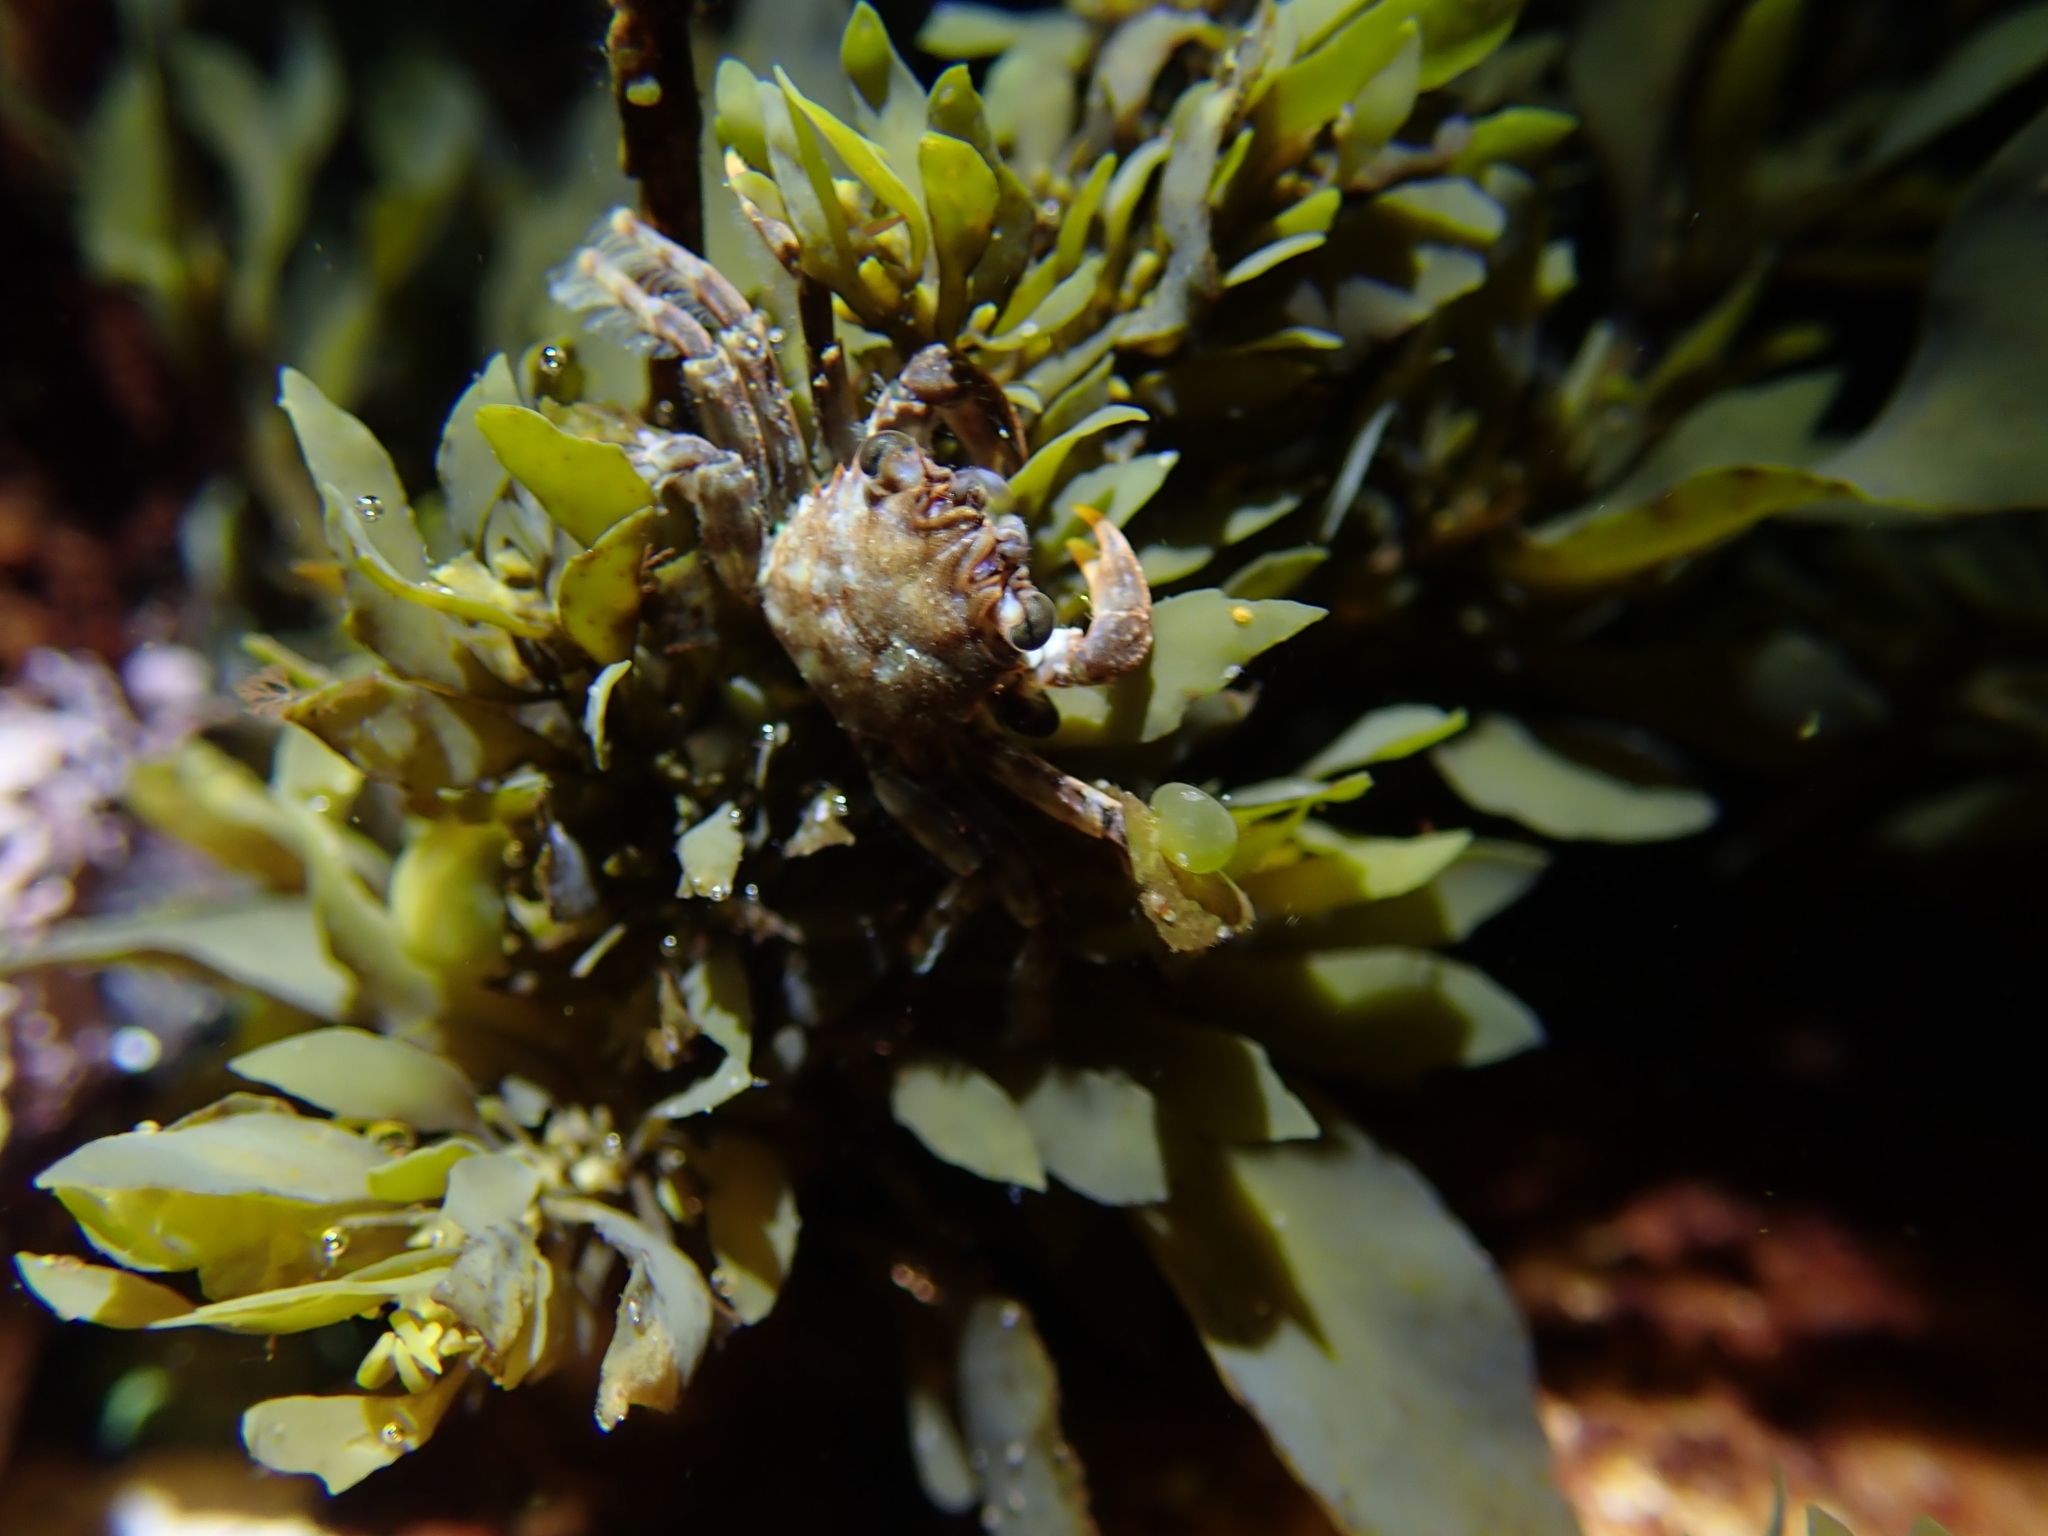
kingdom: Animalia
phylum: Arthropoda
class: Malacostraca
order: Decapoda
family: Plagusiidae
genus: Guinusia
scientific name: Guinusia chabrus
